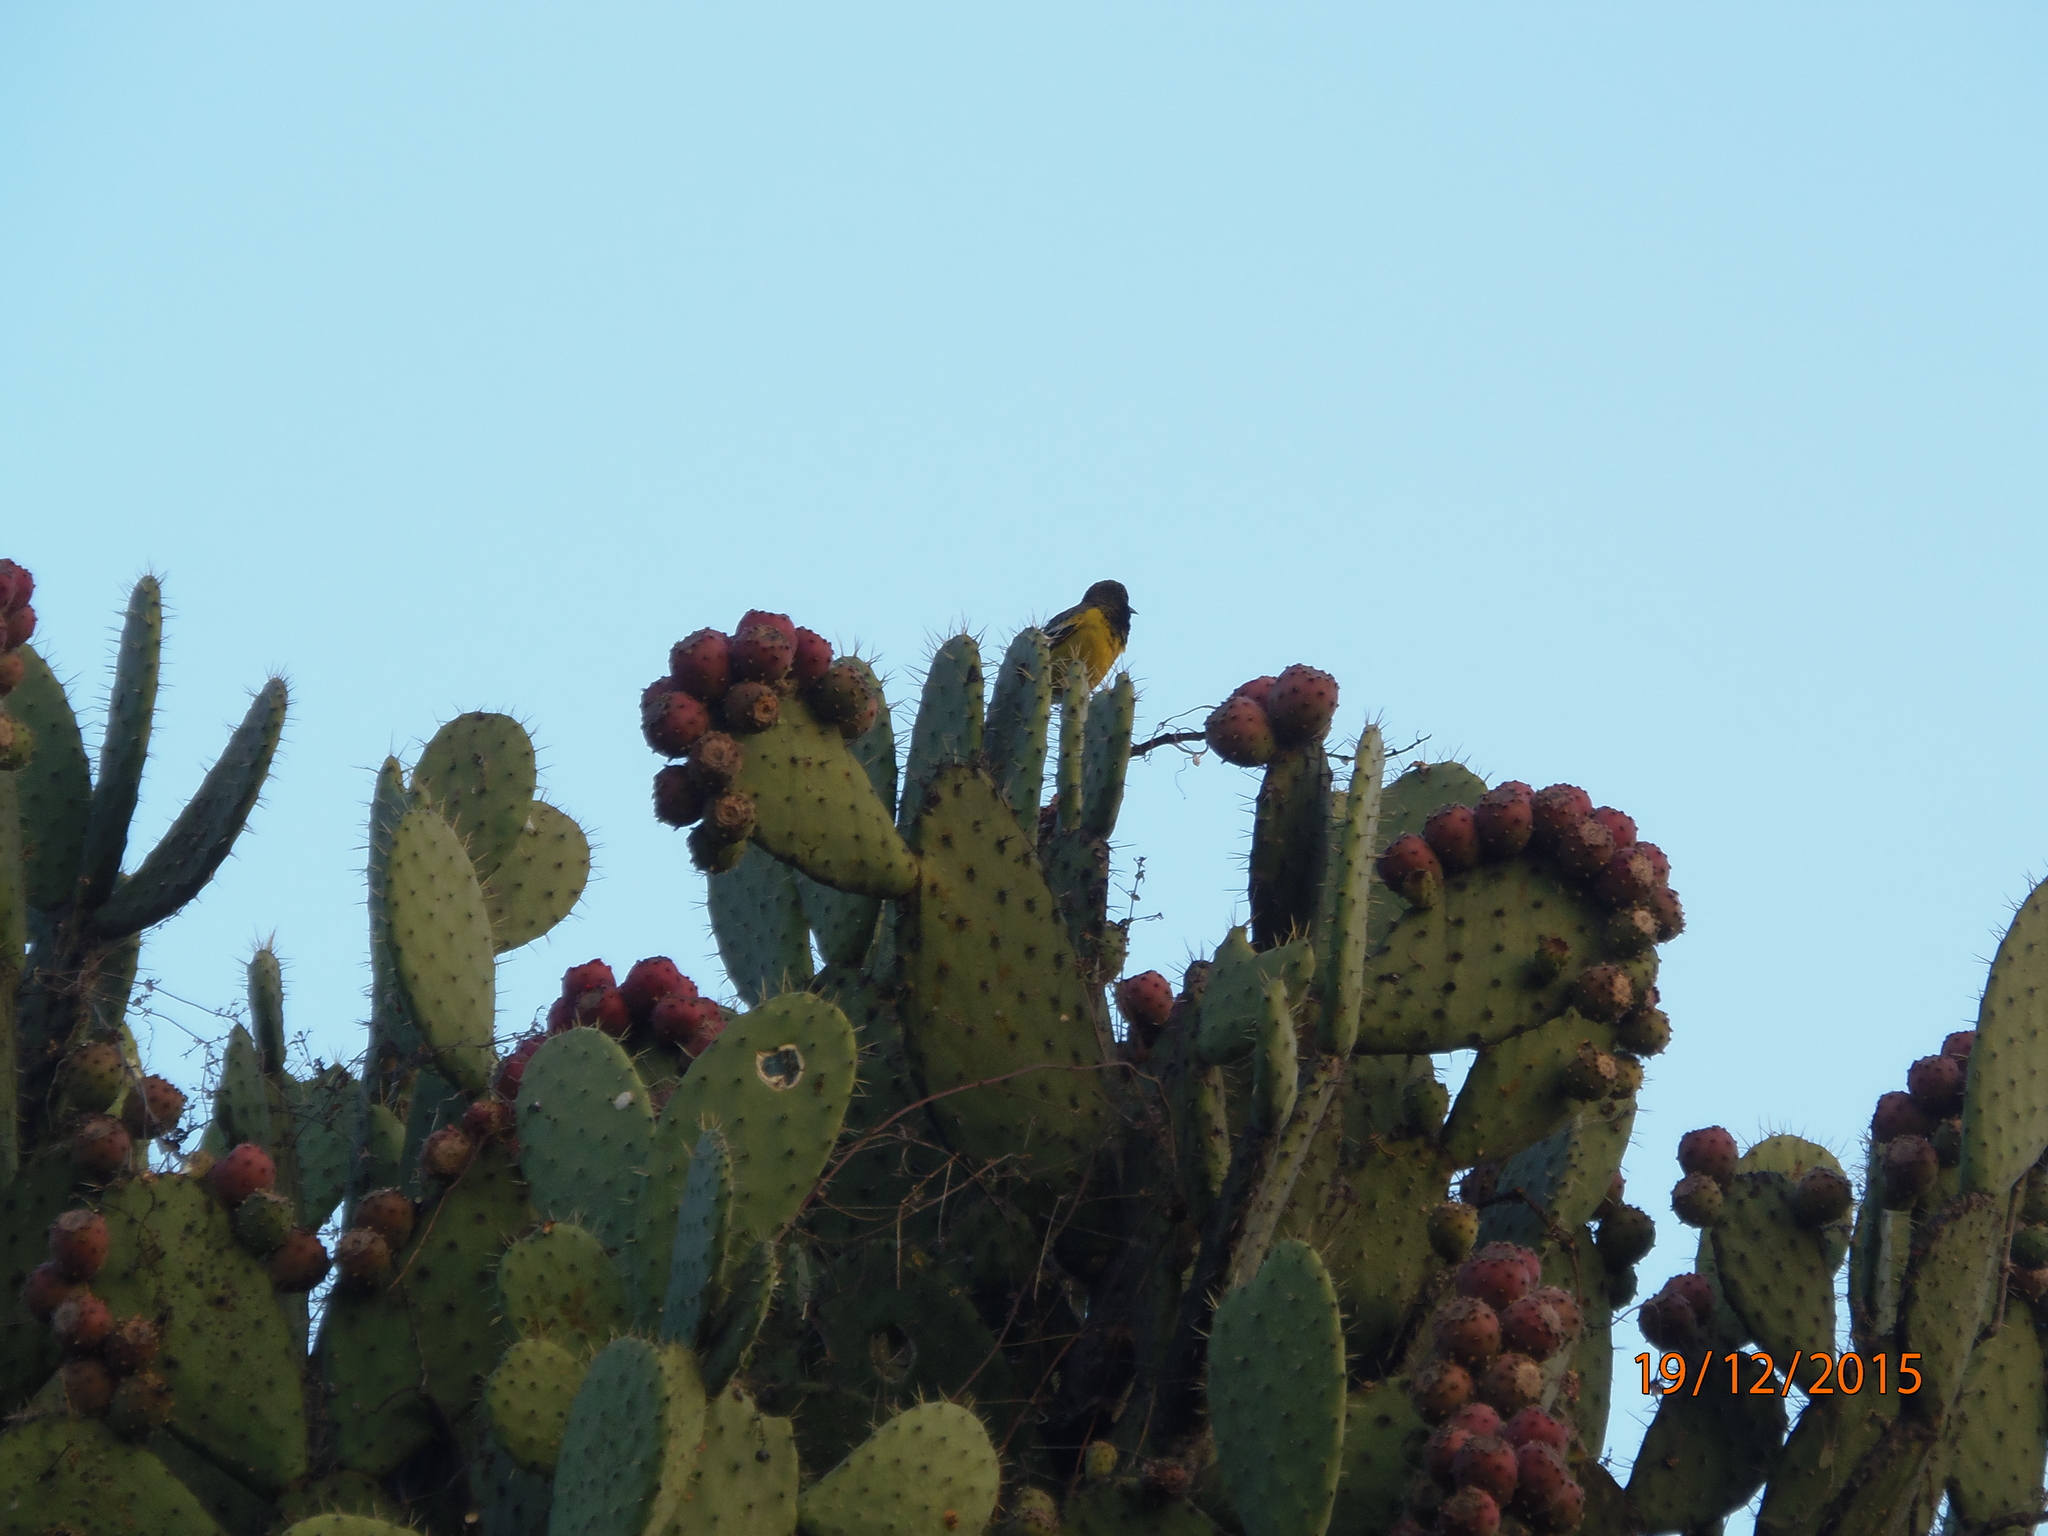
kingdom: Animalia
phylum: Chordata
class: Aves
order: Passeriformes
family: Icteridae
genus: Icterus
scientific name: Icterus parisorum
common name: Scott's oriole
